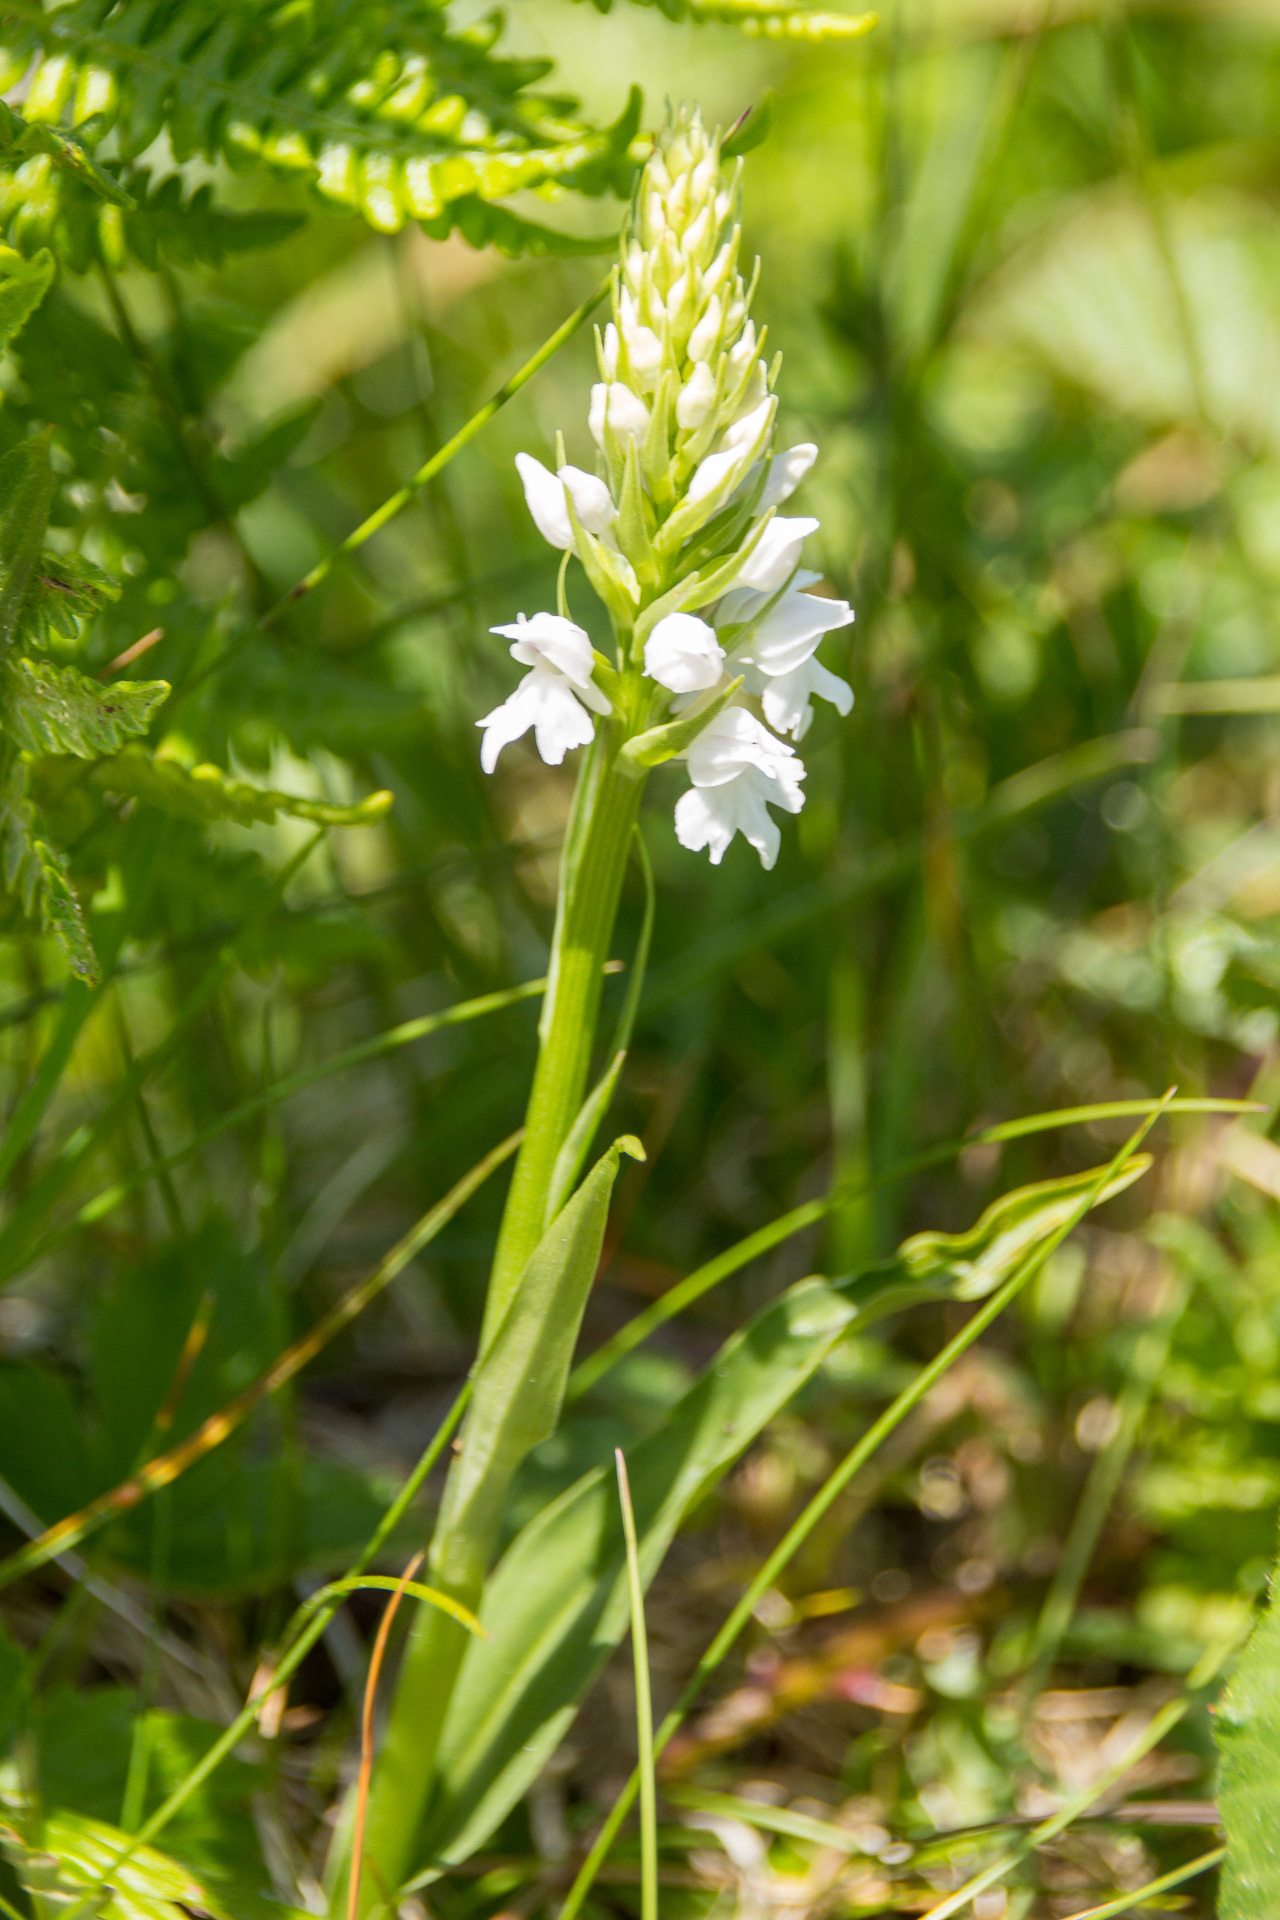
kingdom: Plantae
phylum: Tracheophyta
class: Liliopsida
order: Asparagales
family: Orchidaceae
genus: Dactylorhiza
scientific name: Dactylorhiza maculata
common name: Heath spotted-orchid
